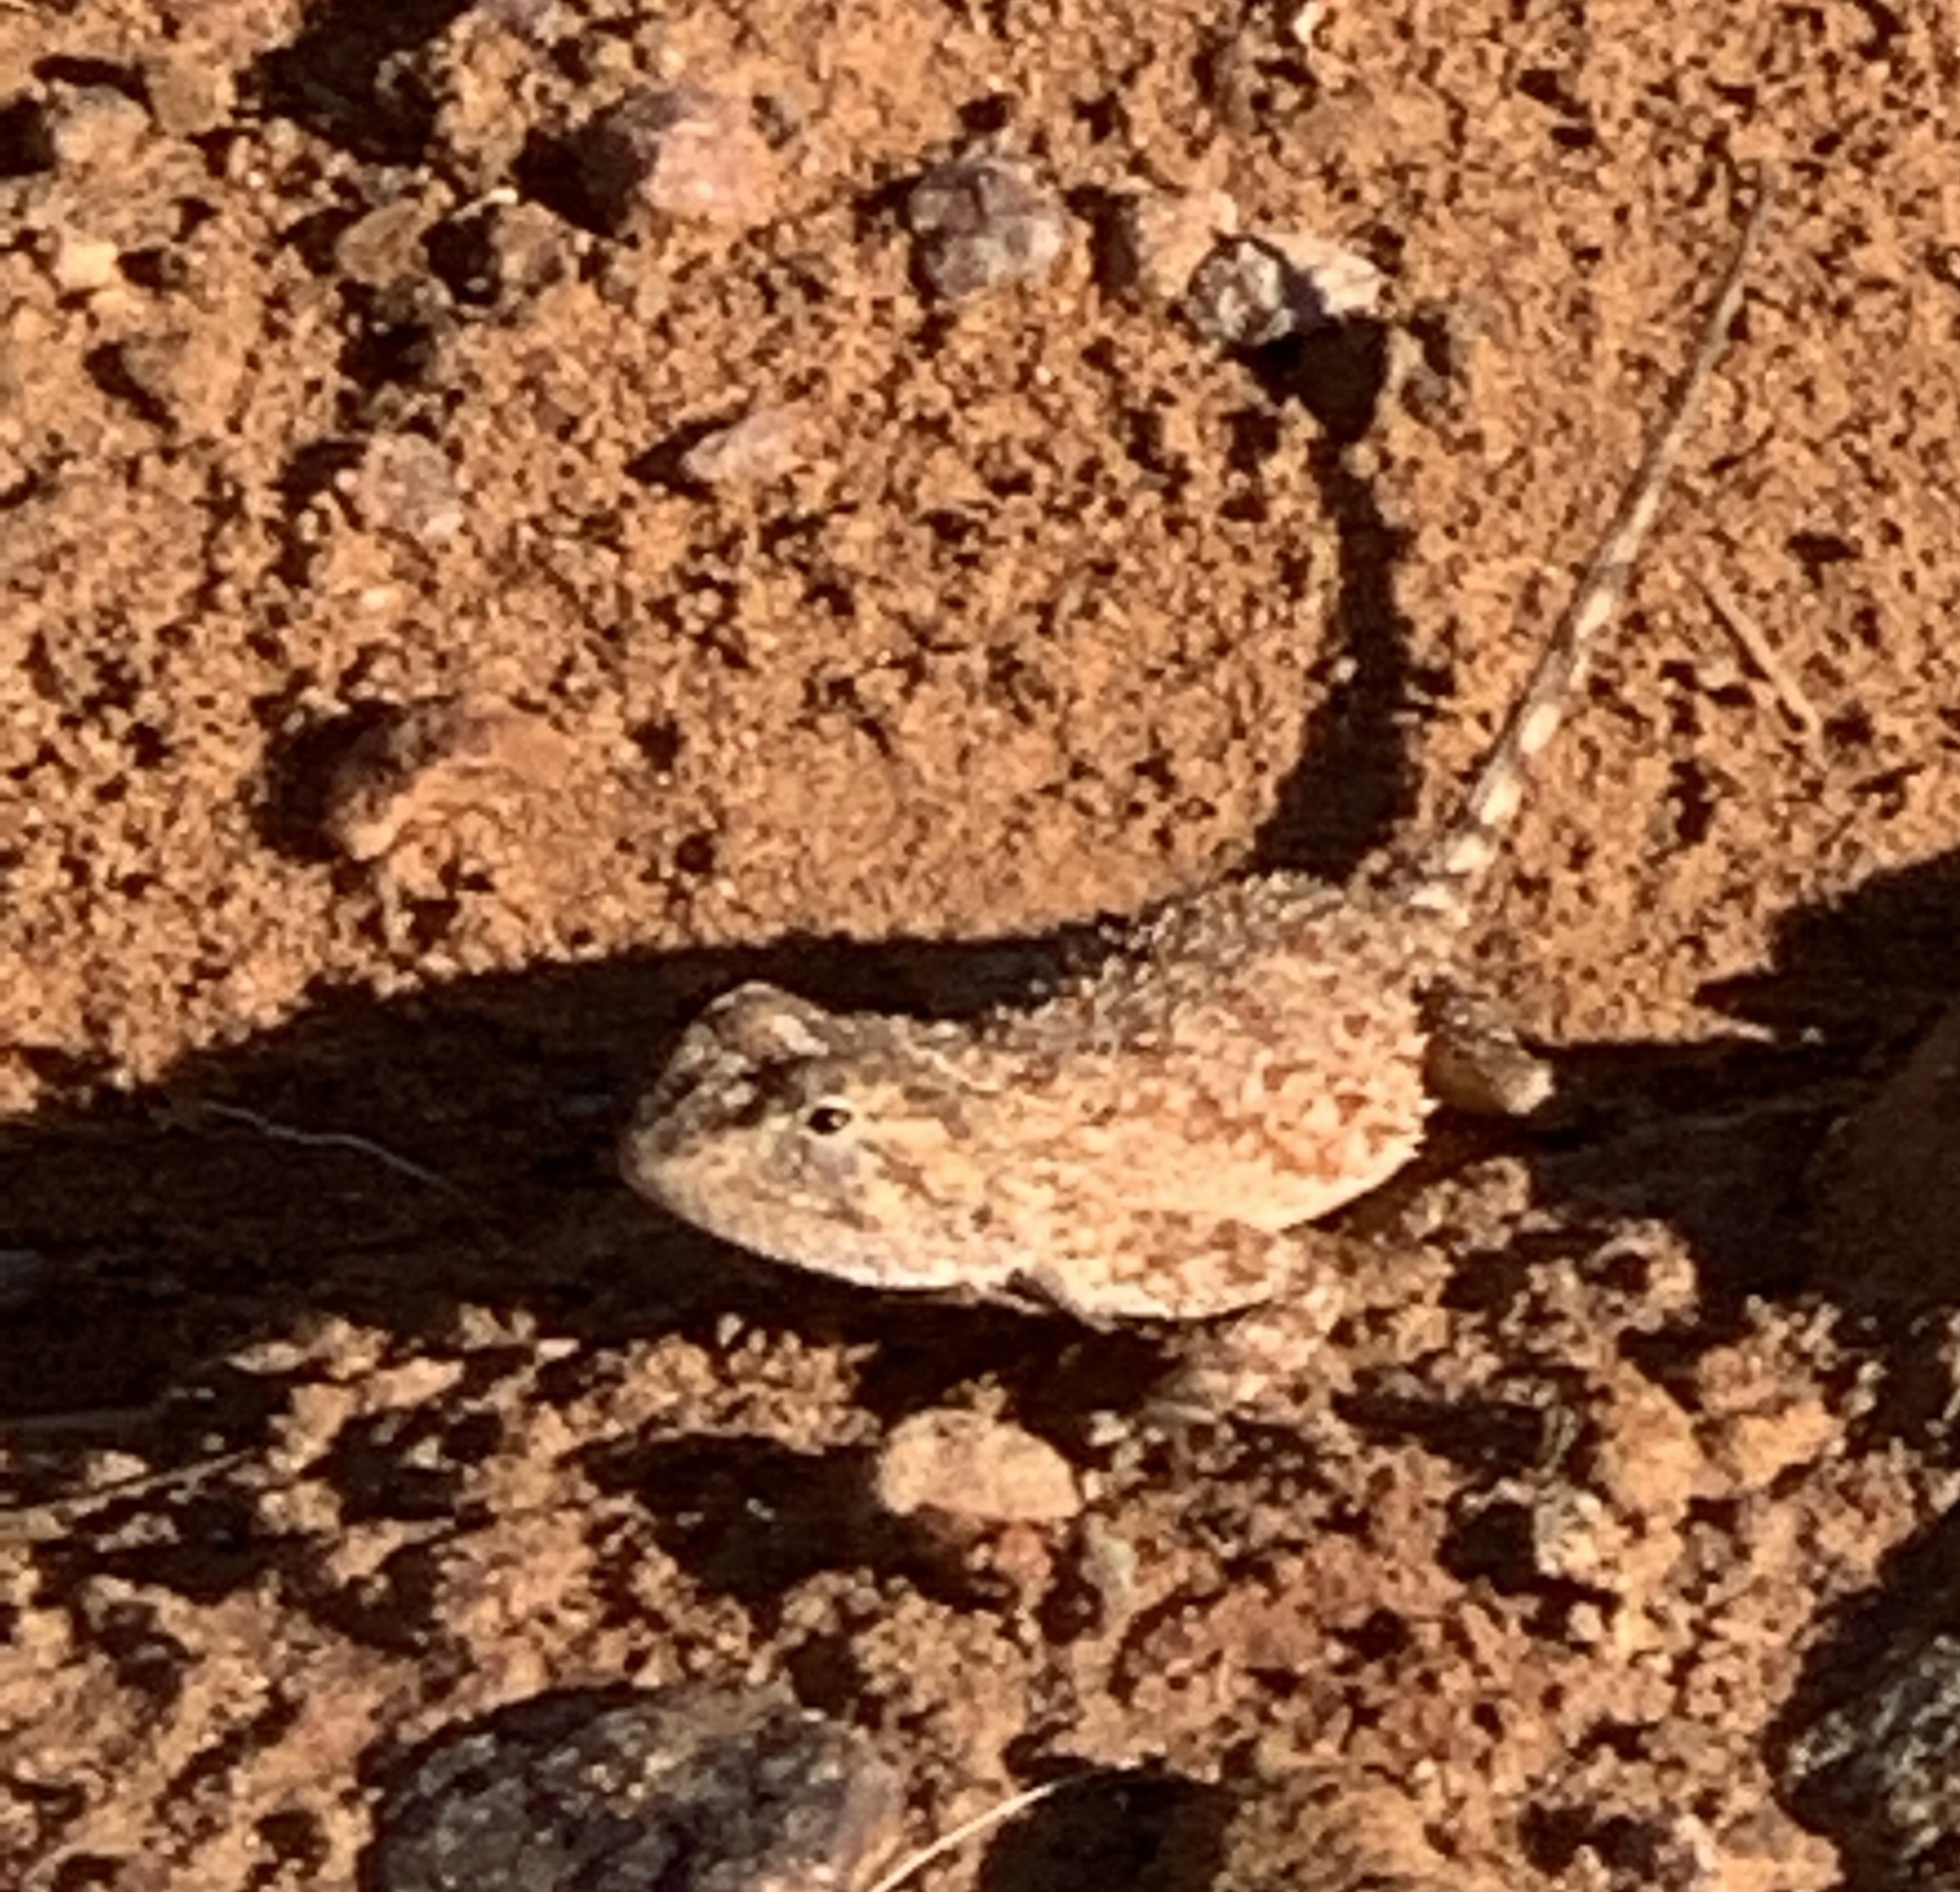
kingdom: Animalia
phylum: Chordata
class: Squamata
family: Agamidae
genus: Agama
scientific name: Agama aculeata
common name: Common ground agama
